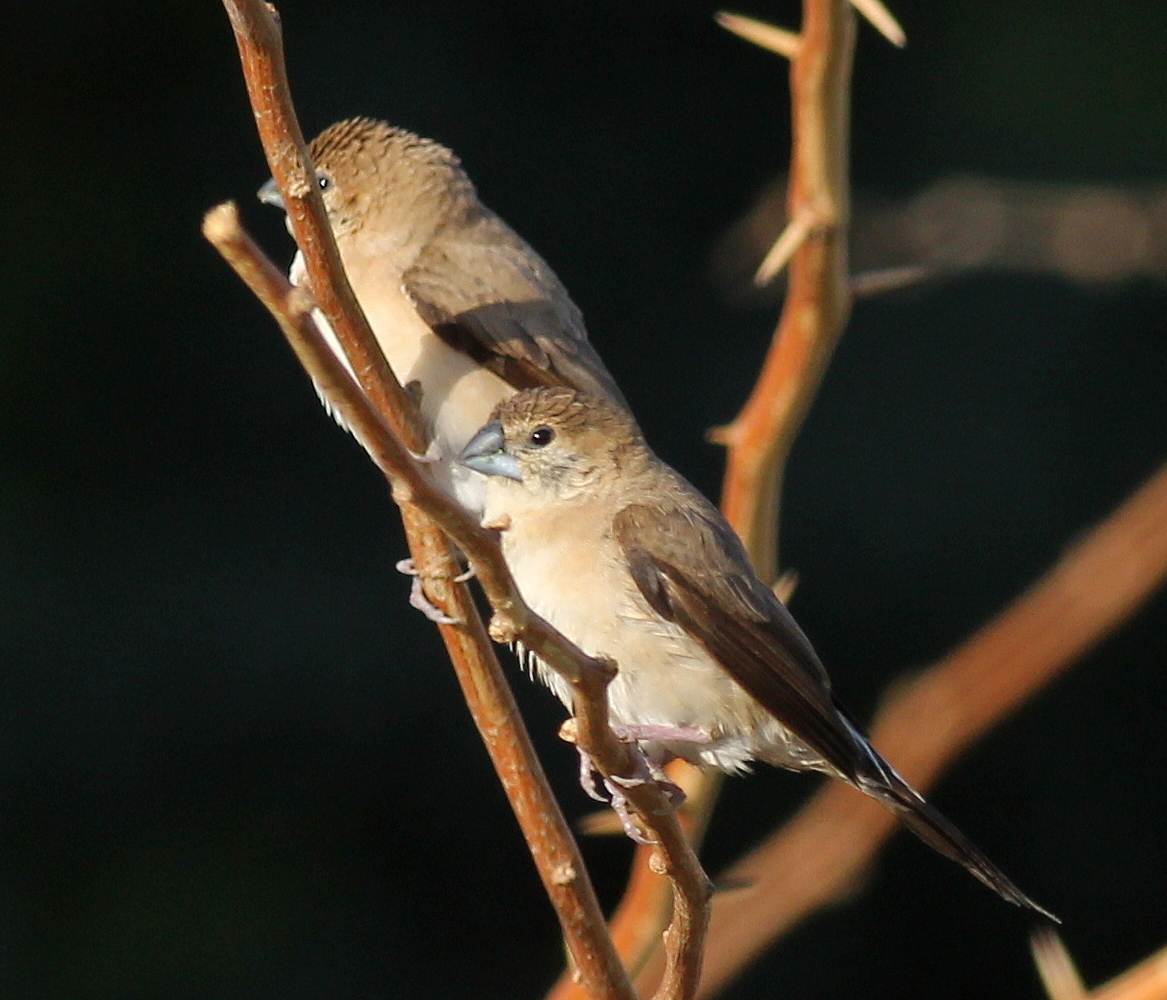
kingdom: Animalia
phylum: Chordata
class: Aves
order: Passeriformes
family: Estrildidae
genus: Euodice
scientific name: Euodice malabarica
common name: Indian silverbill
